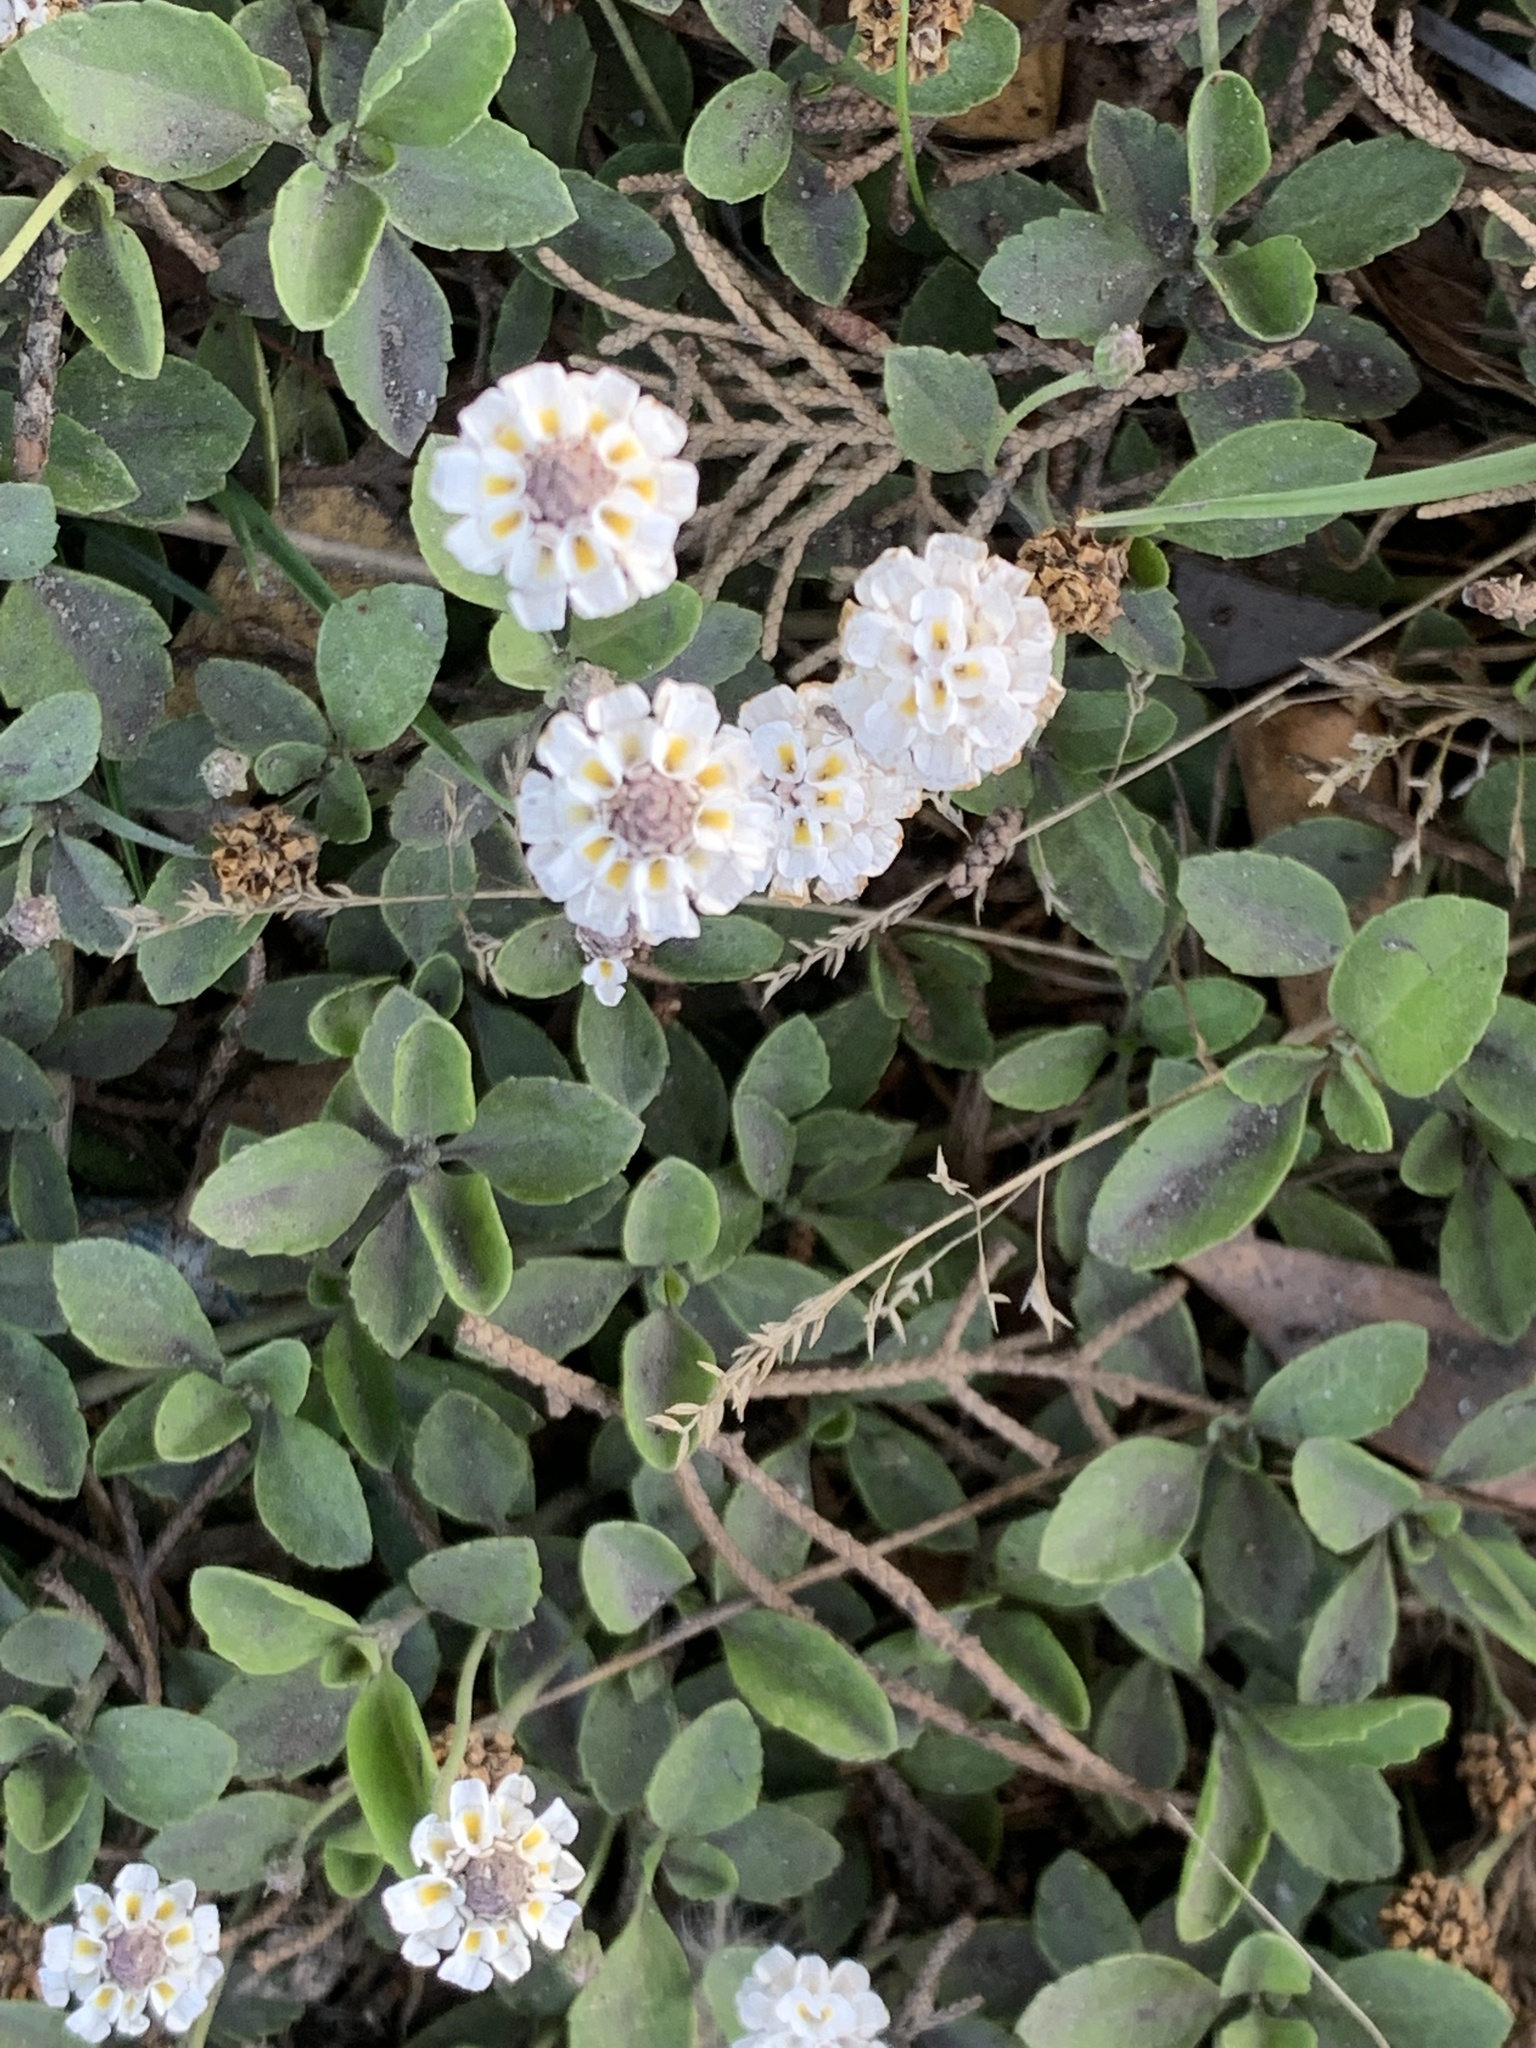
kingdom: Plantae
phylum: Tracheophyta
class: Magnoliopsida
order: Lamiales
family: Verbenaceae
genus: Phyla
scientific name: Phyla nodiflora
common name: Frogfruit
